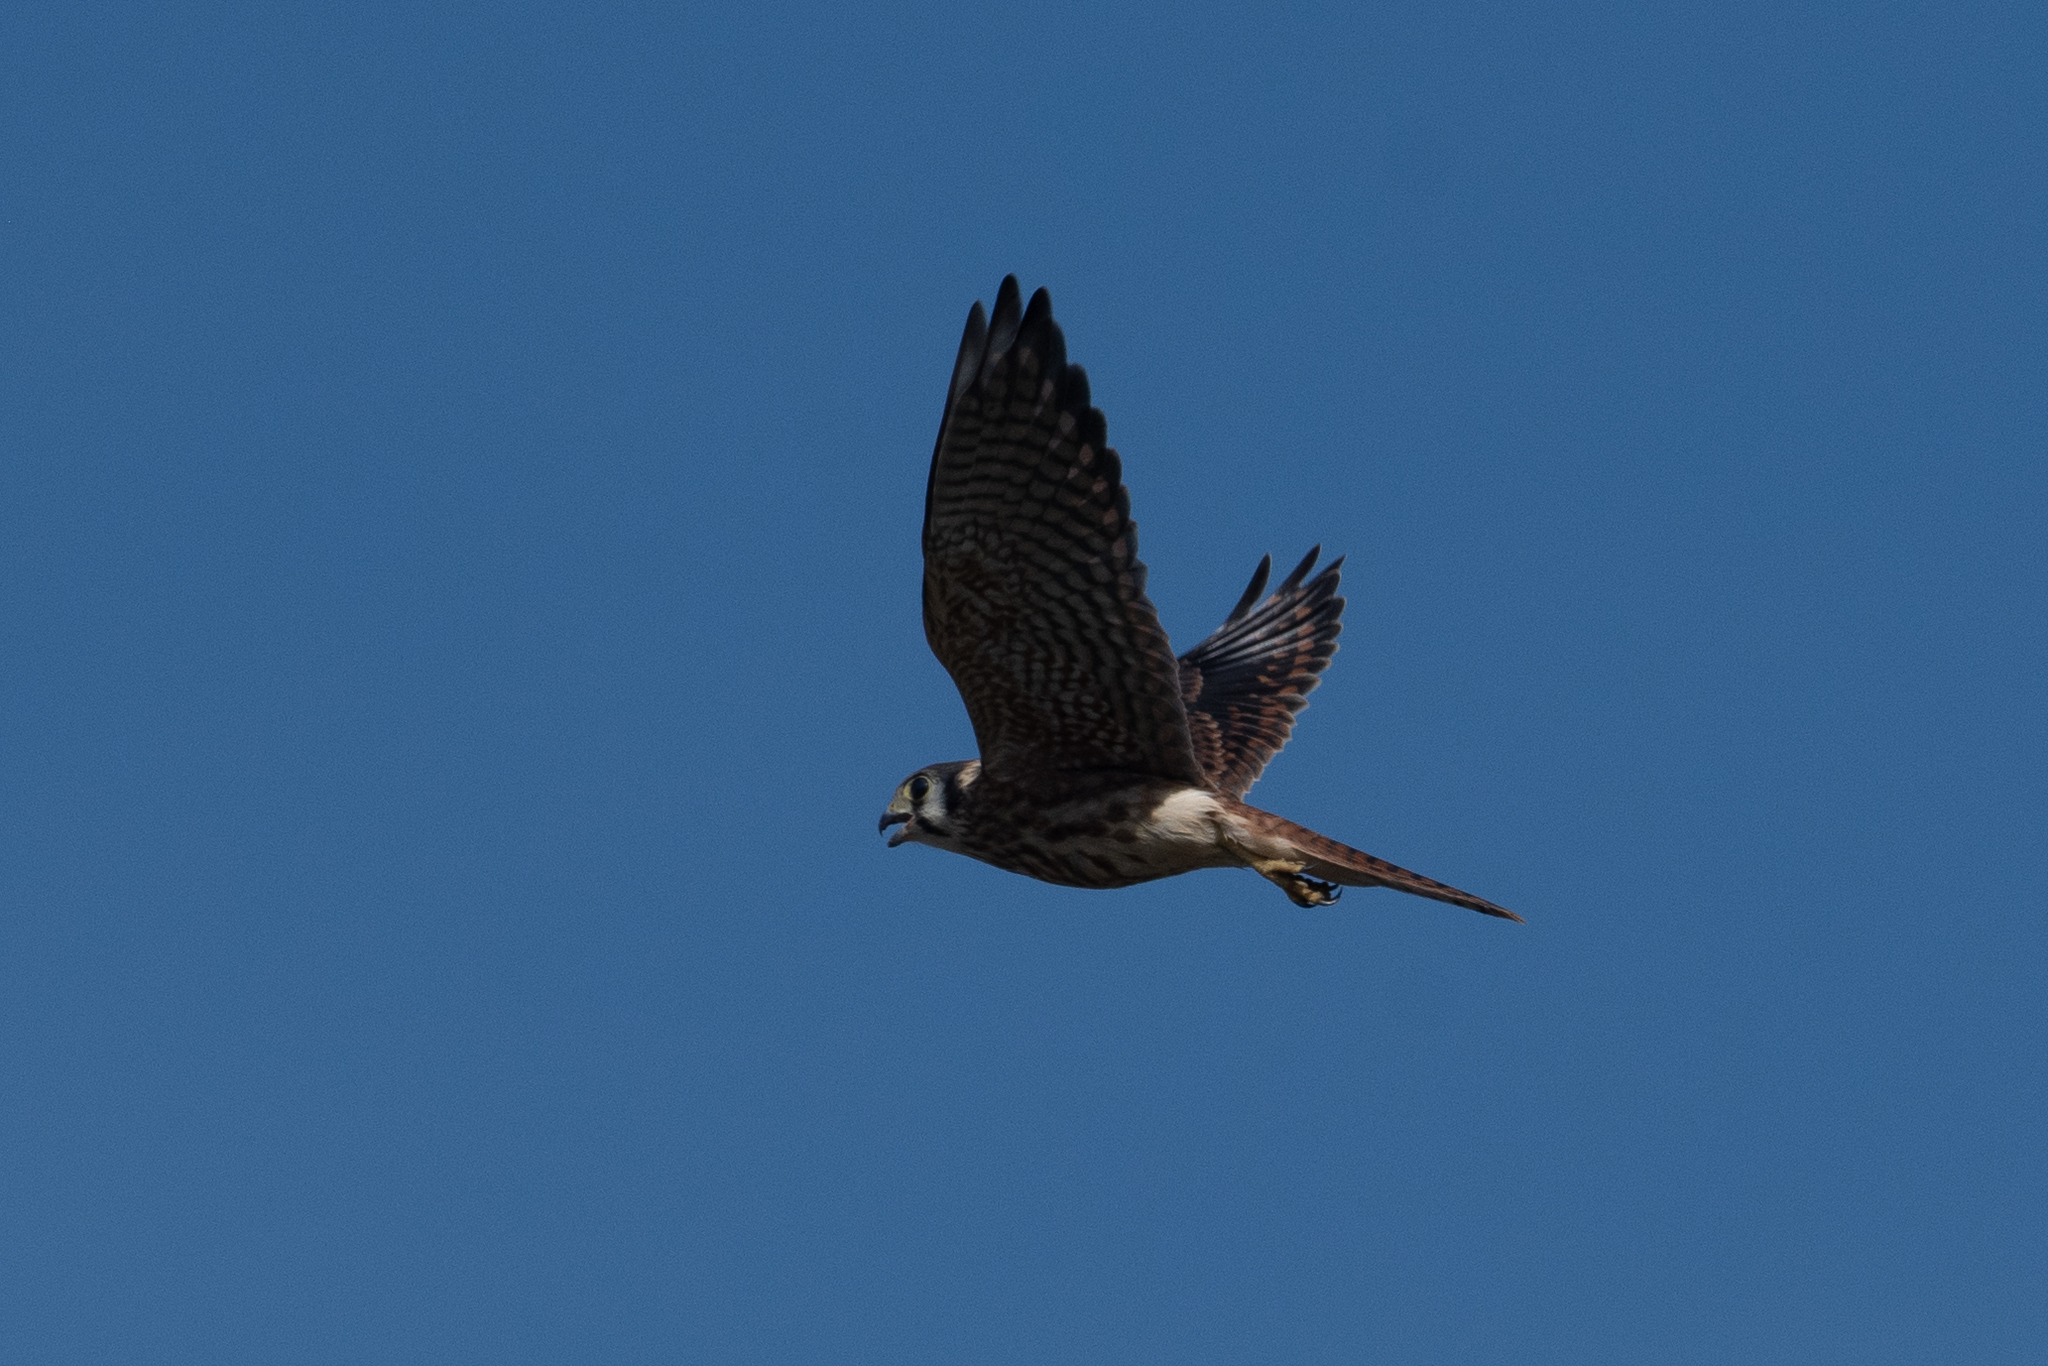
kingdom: Animalia
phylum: Chordata
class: Aves
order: Falconiformes
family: Falconidae
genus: Falco
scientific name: Falco sparverius
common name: American kestrel
